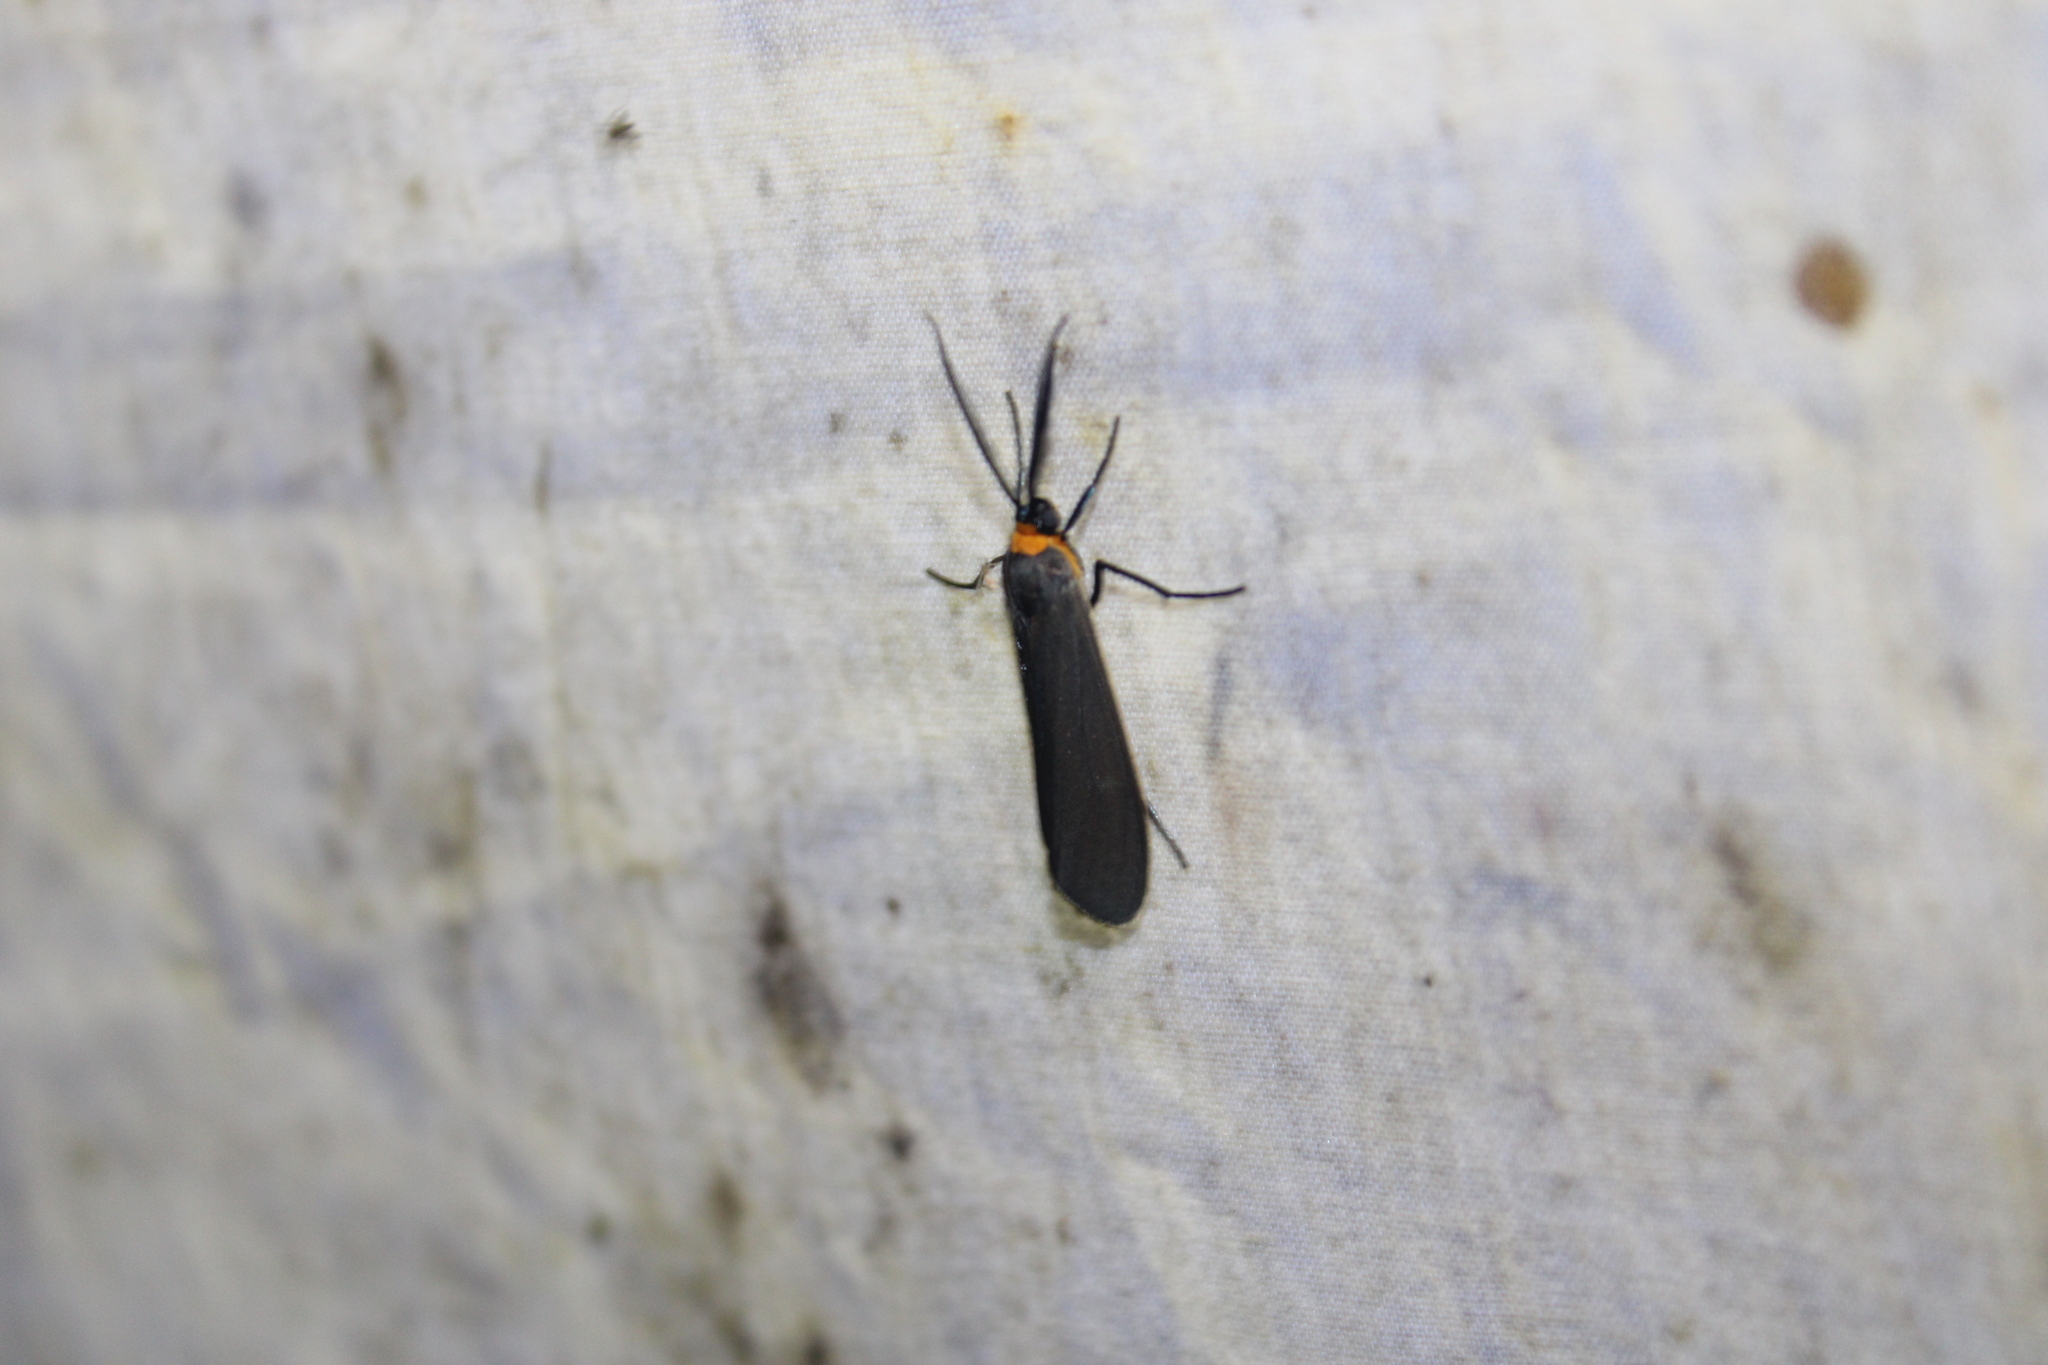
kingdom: Animalia
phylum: Arthropoda
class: Insecta
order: Lepidoptera
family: Erebidae
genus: Cisseps
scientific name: Cisseps fulvicollis
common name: Yellow-collared scape moth
